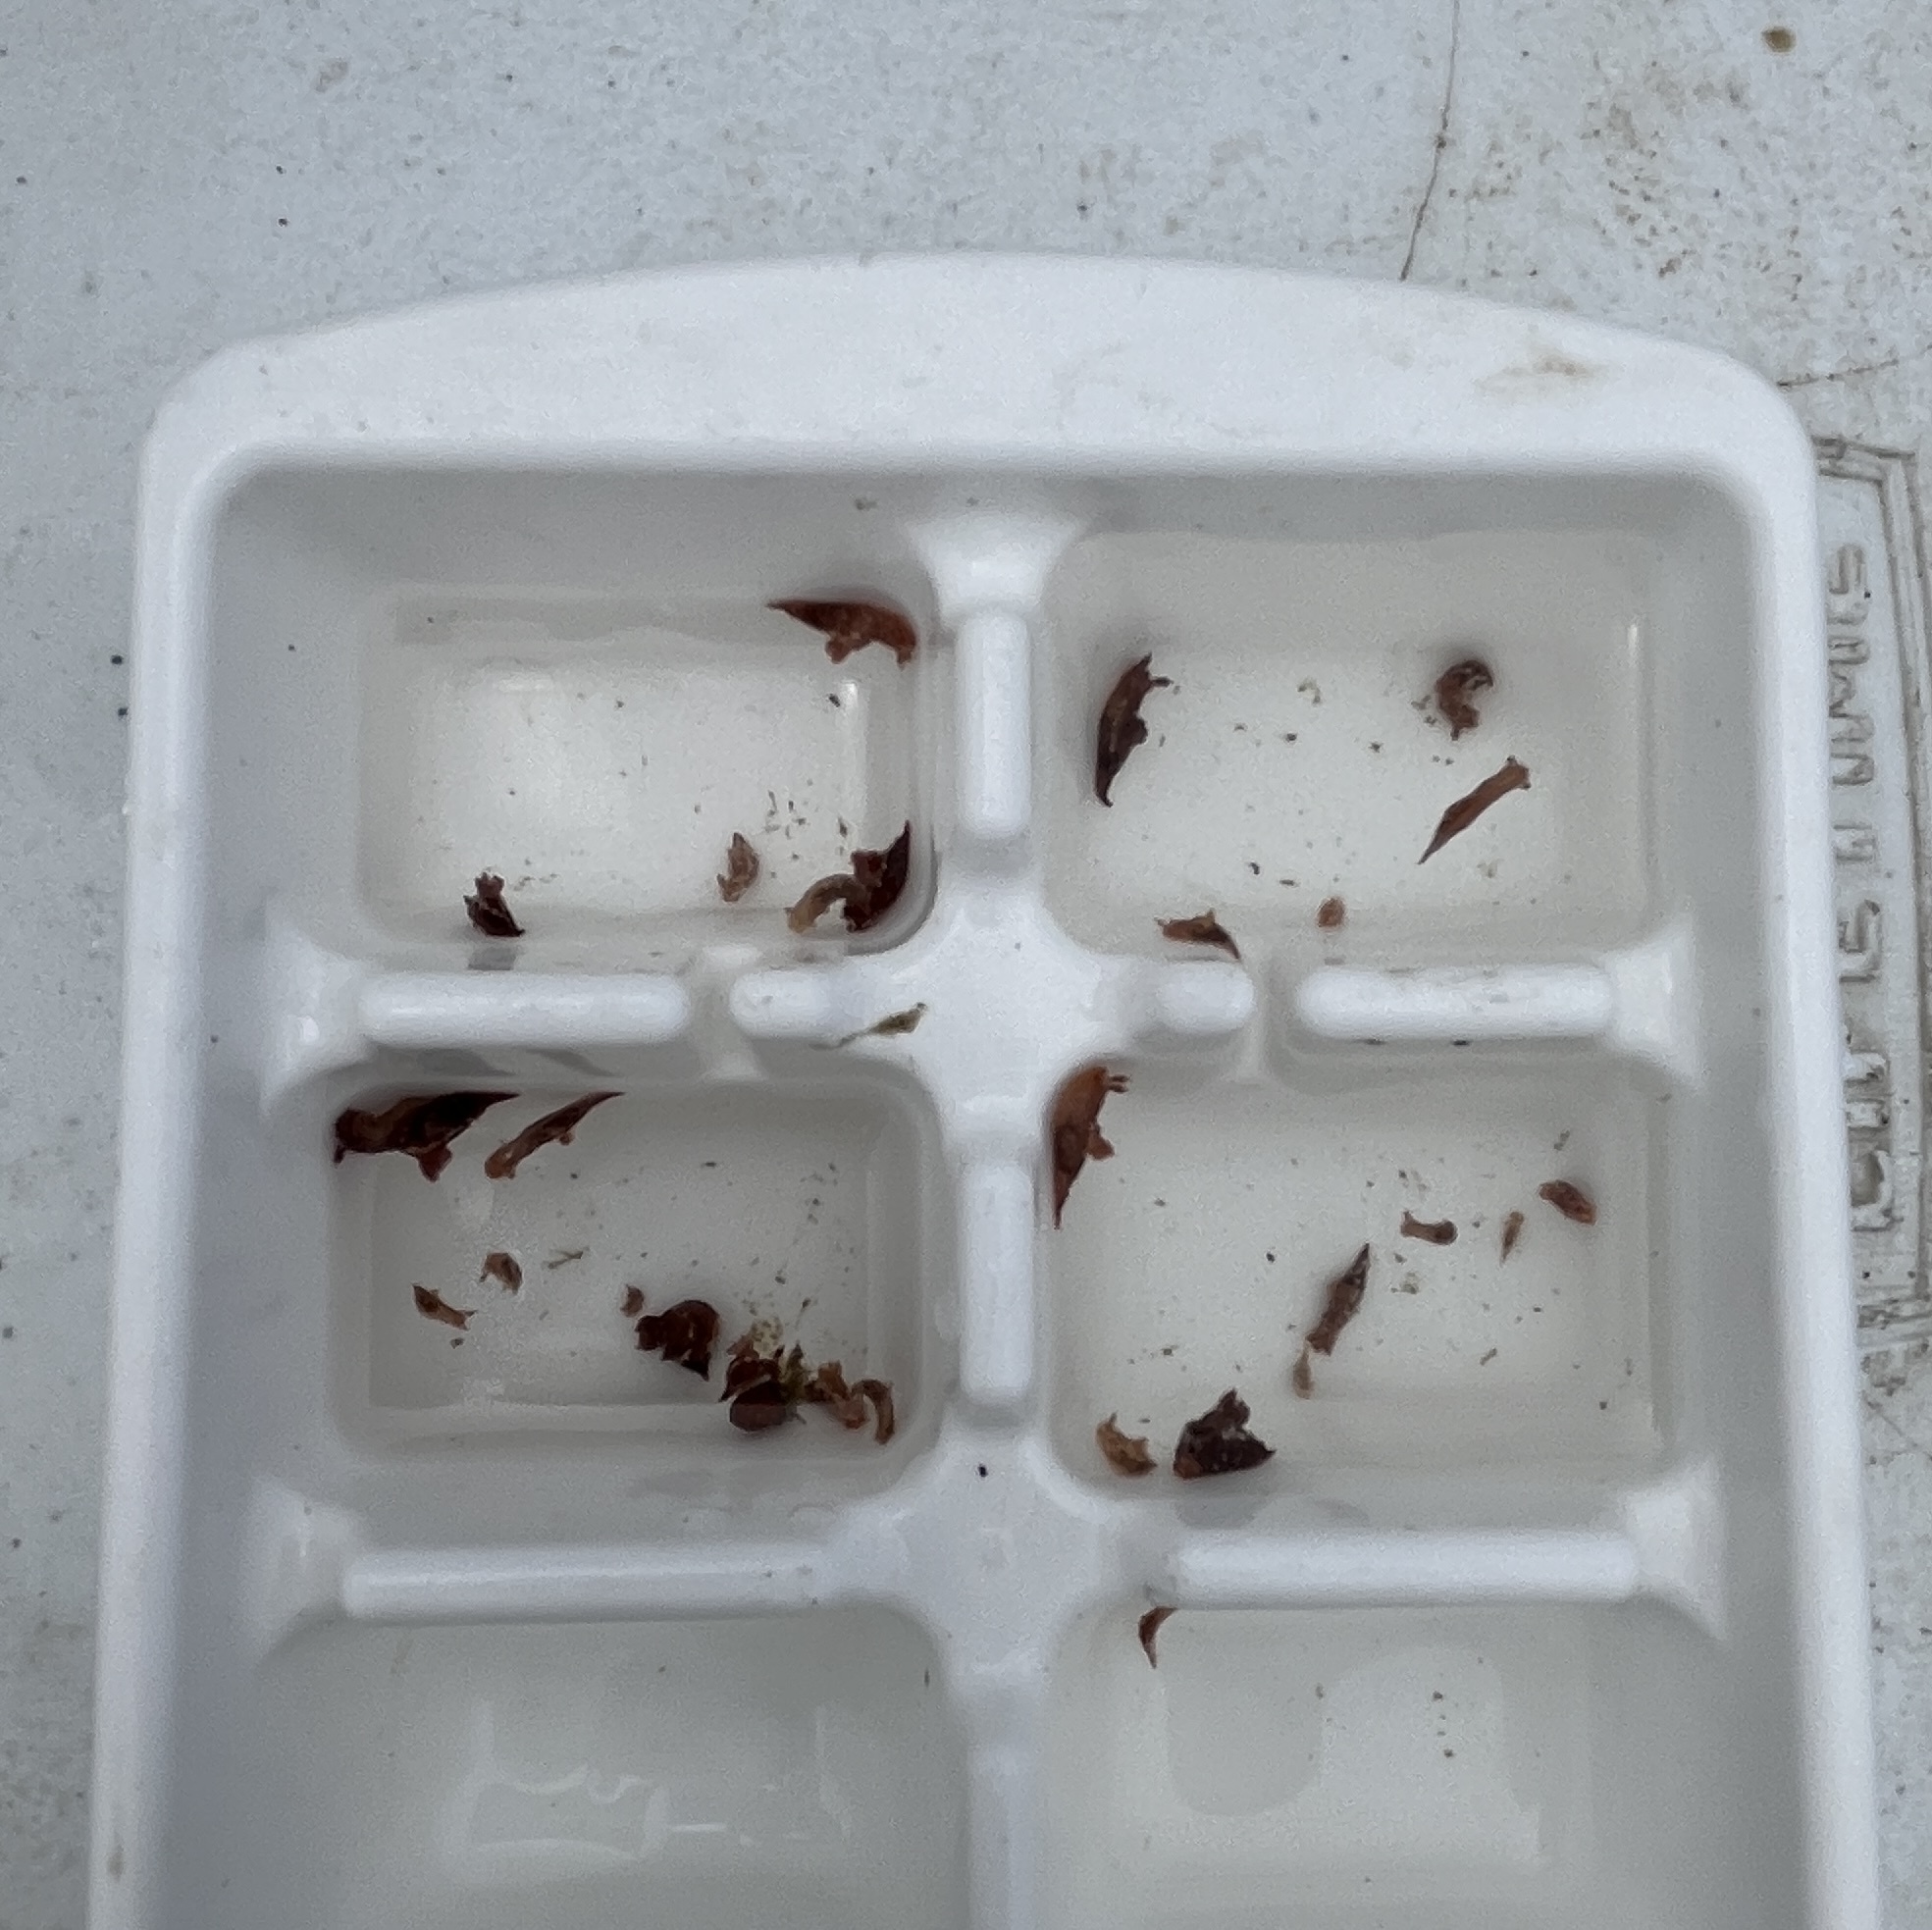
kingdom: Animalia
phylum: Mollusca
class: Gastropoda
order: Nudibranchia
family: Polyceridae
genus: Polycera
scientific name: Polycera parvula
